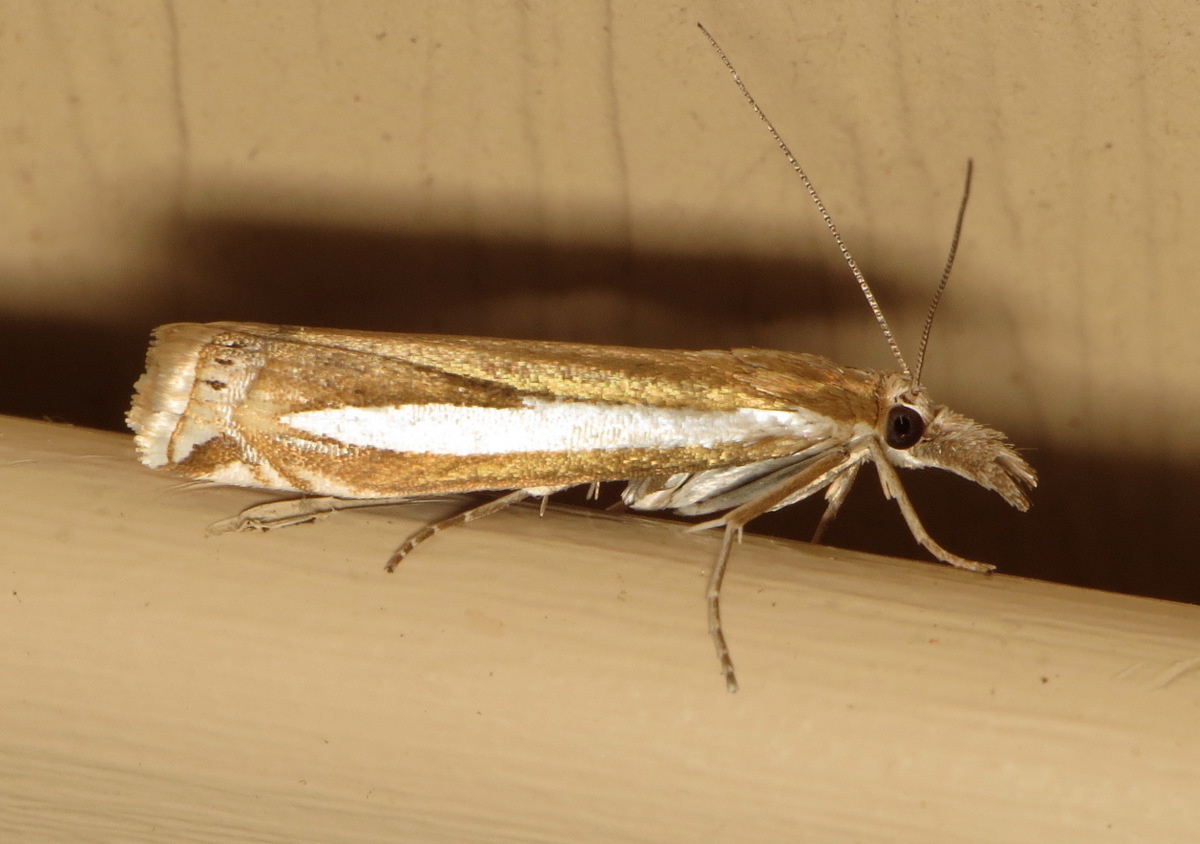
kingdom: Animalia
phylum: Arthropoda
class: Insecta
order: Lepidoptera
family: Crambidae
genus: Crambus
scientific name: Crambus praefectellus
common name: Common grass-veneer
